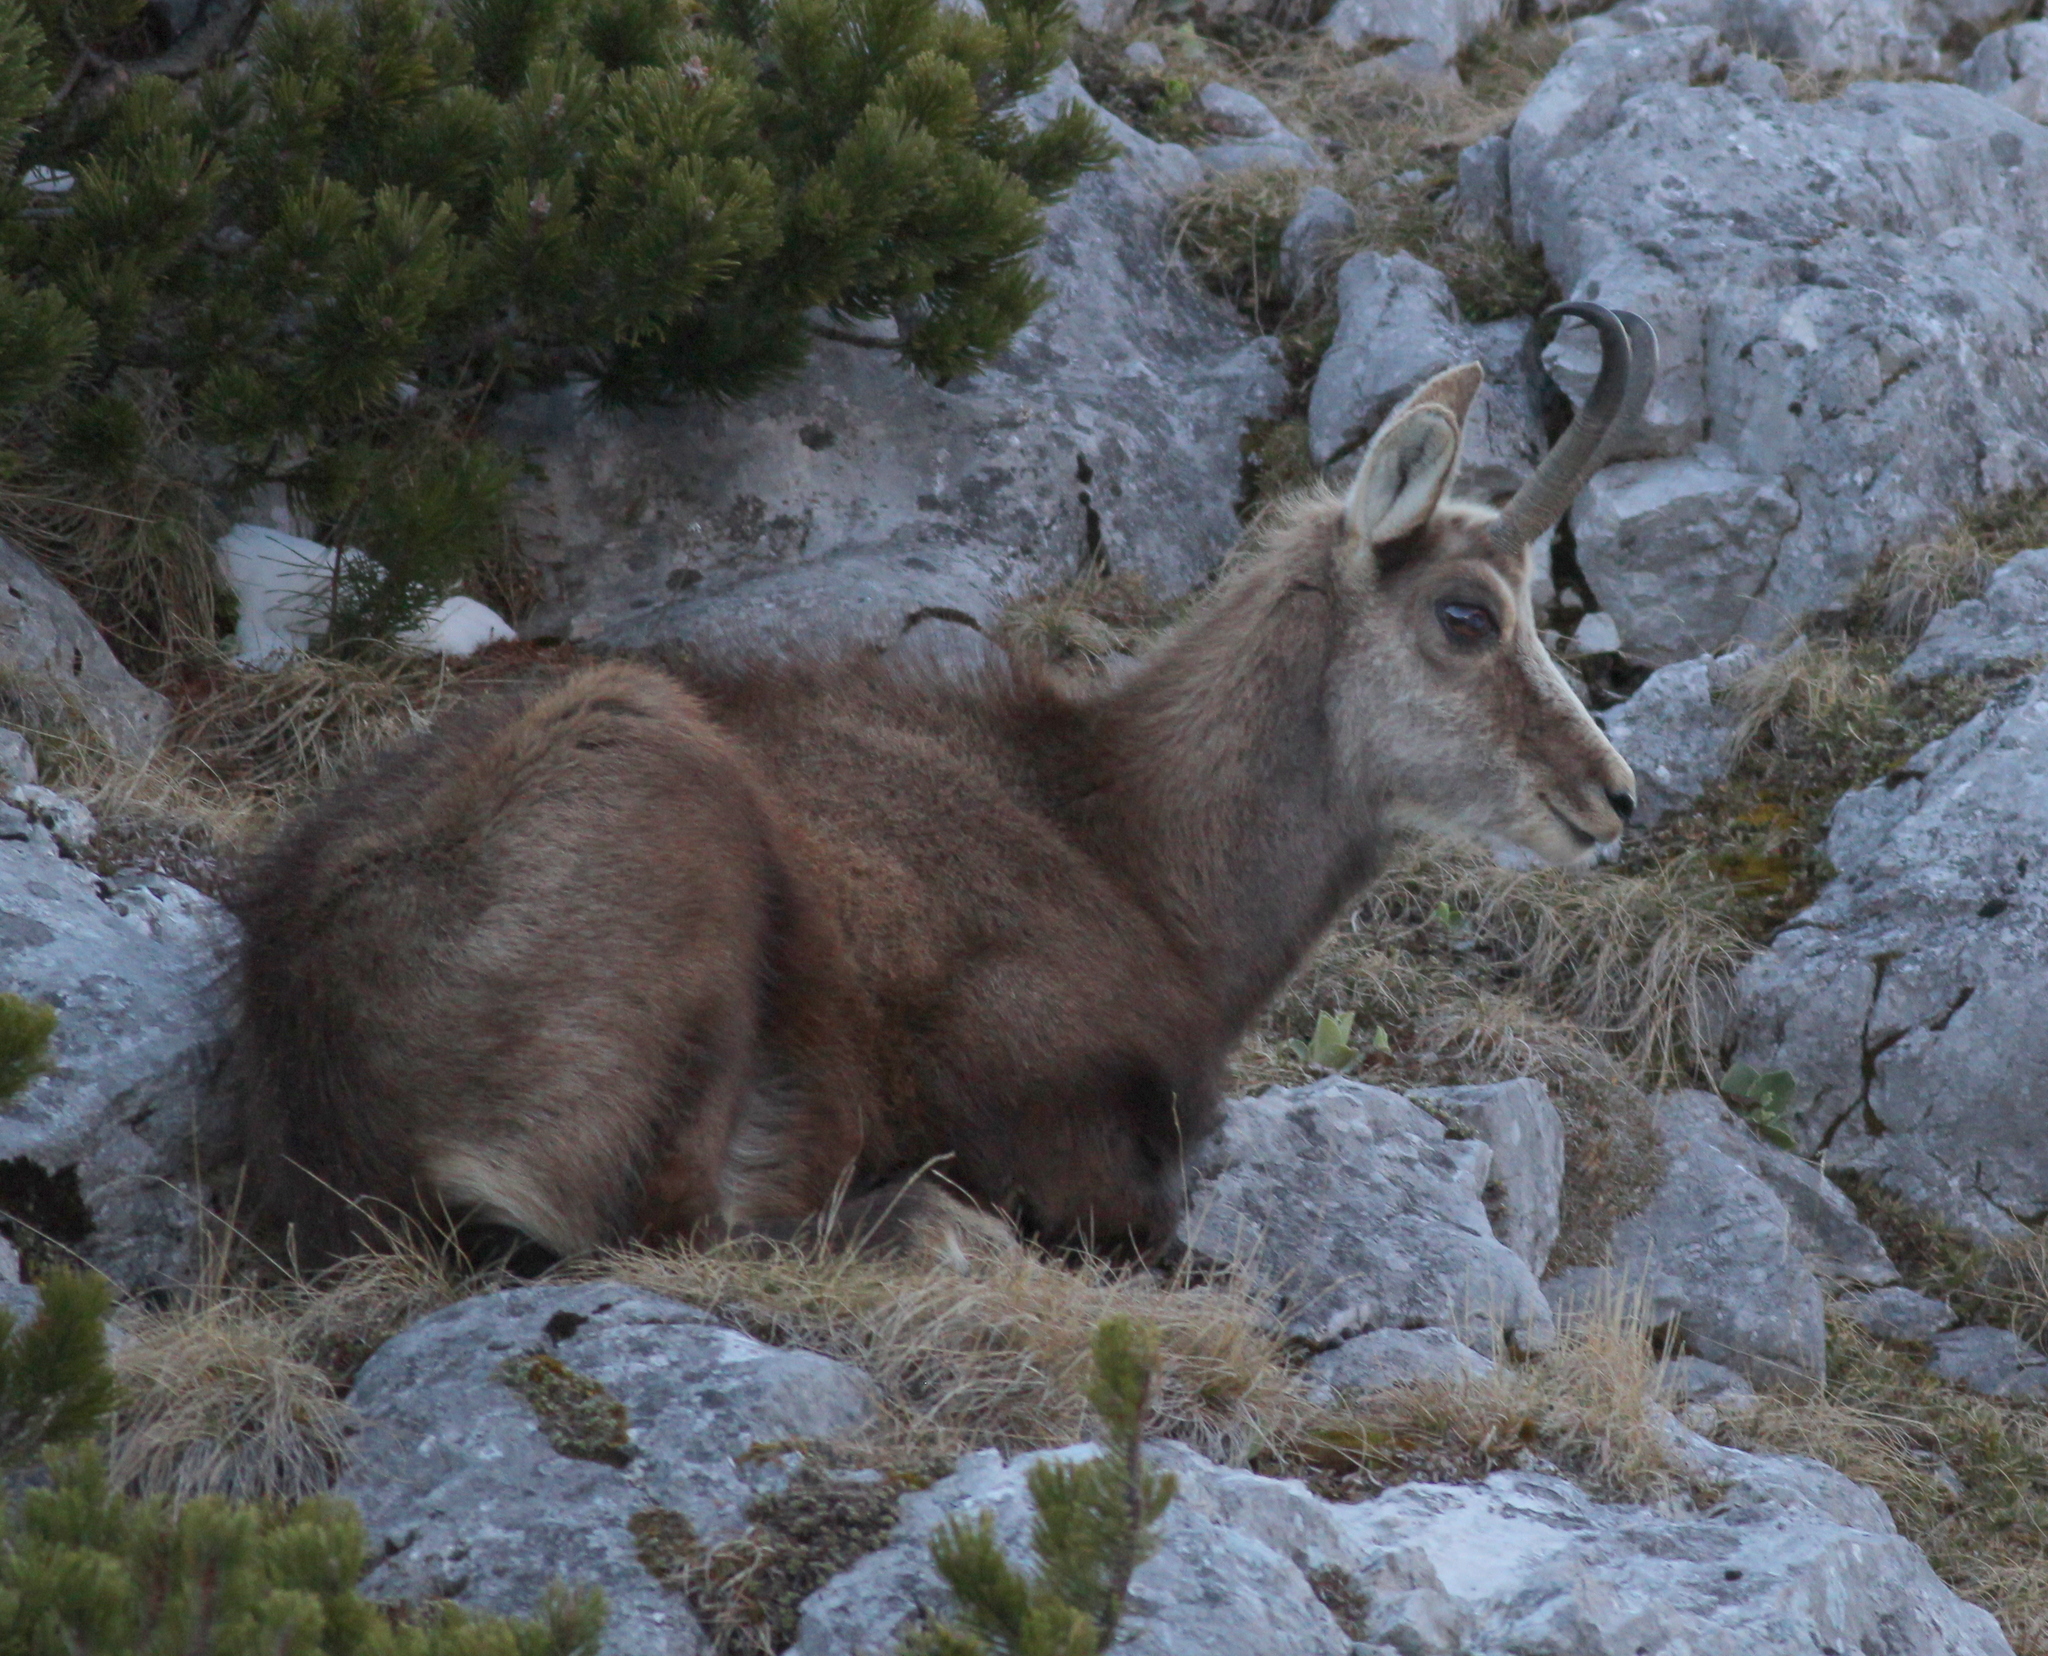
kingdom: Animalia
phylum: Chordata
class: Mammalia
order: Artiodactyla
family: Bovidae
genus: Rupicapra
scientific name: Rupicapra rupicapra
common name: Chamois
